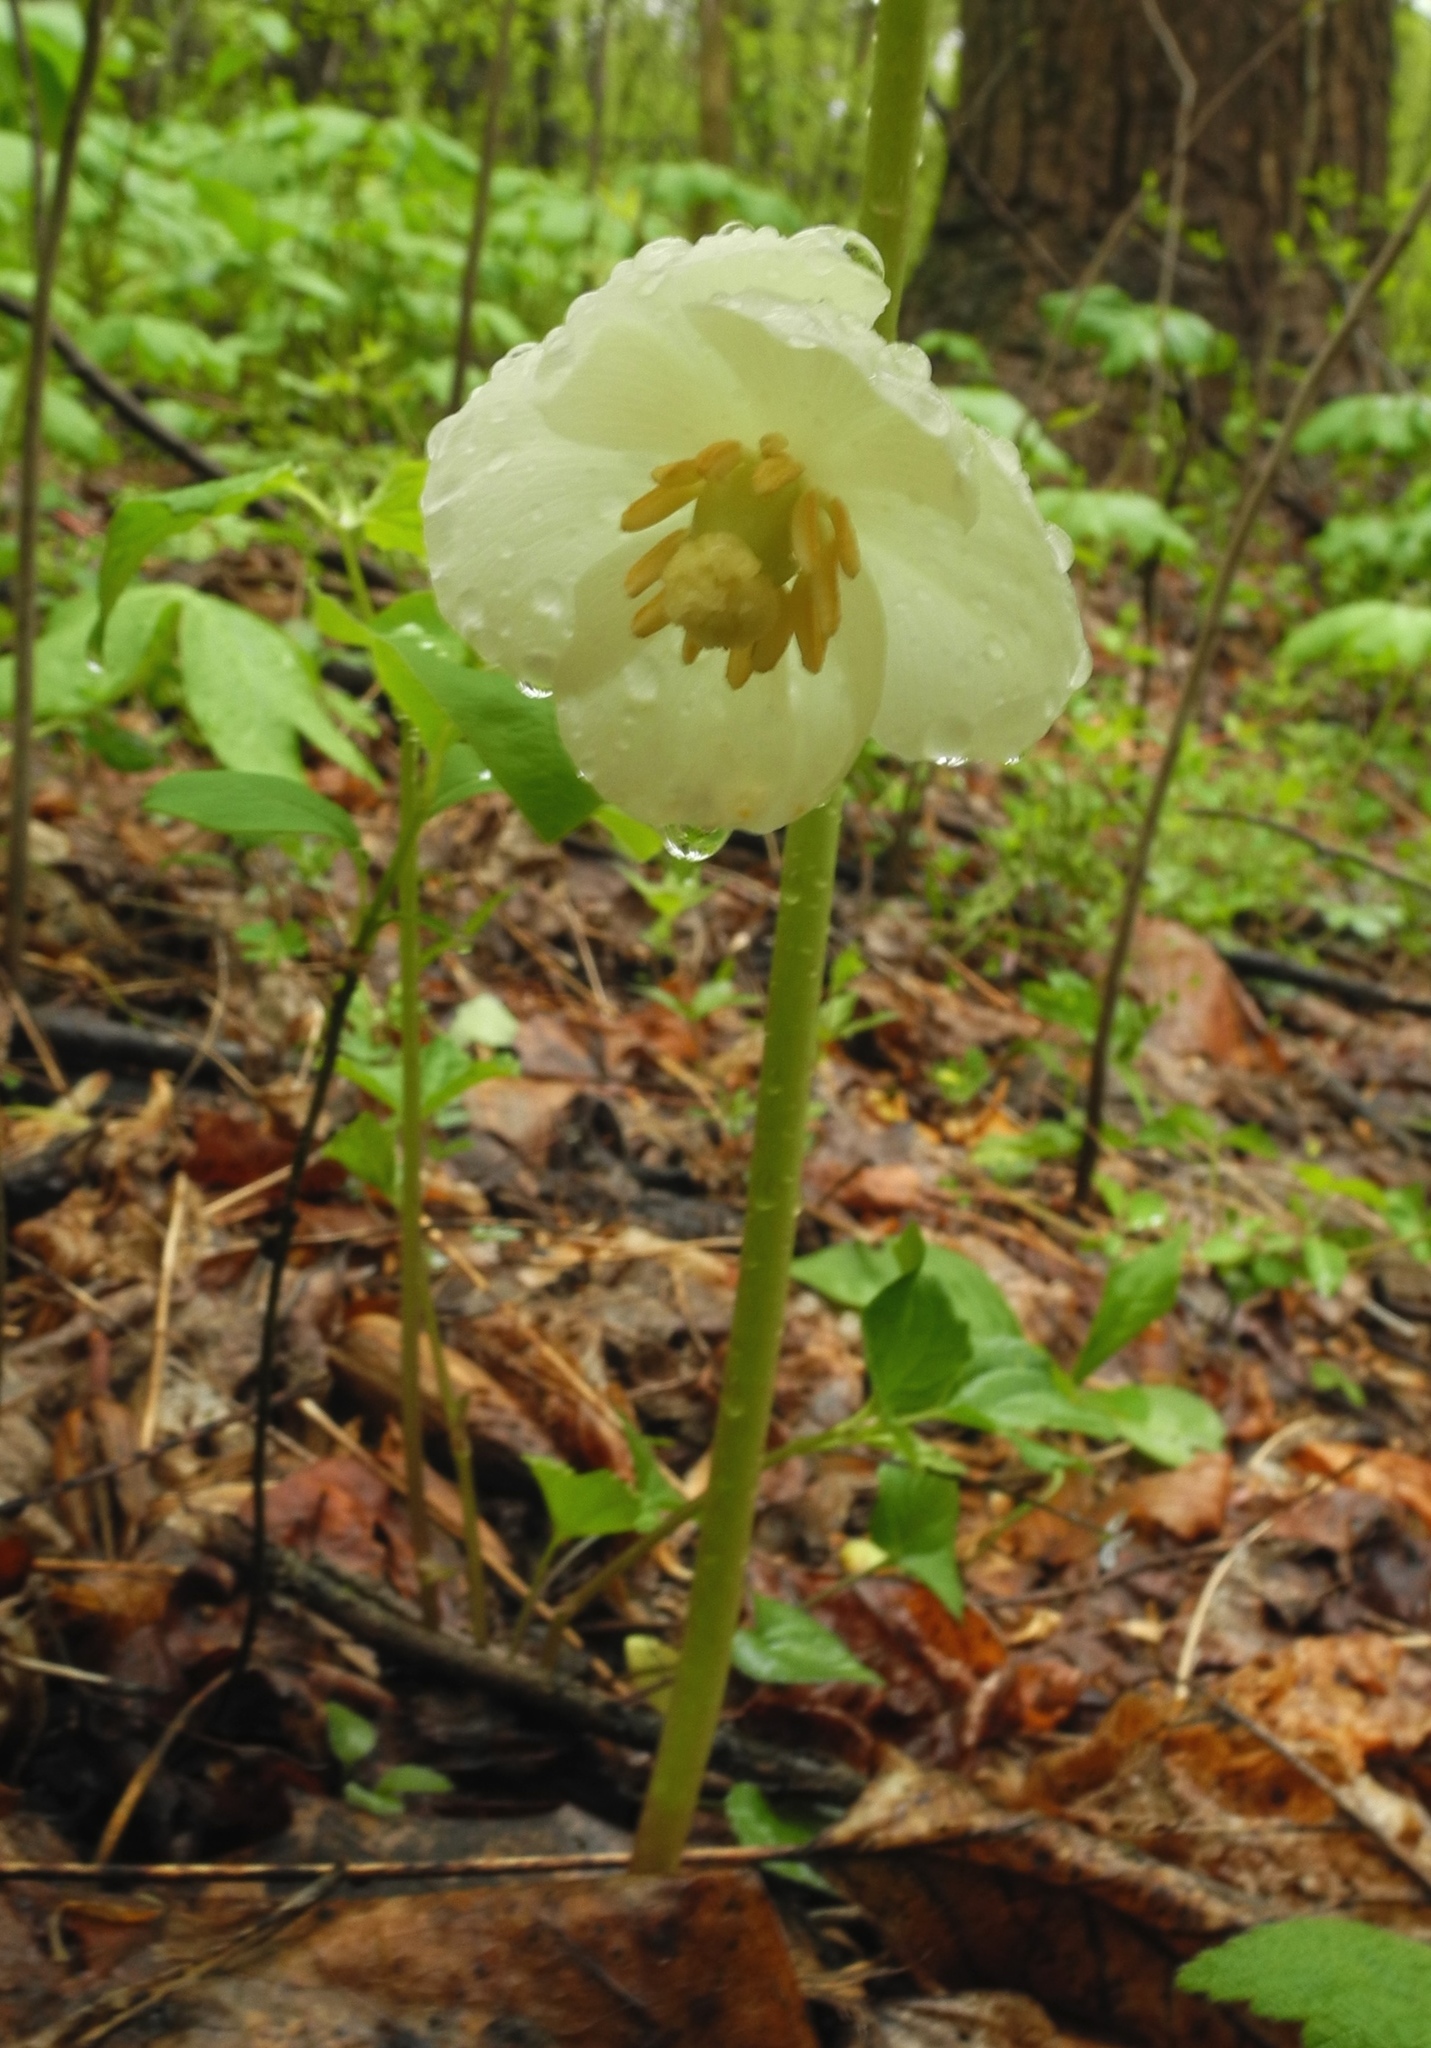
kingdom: Plantae
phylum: Tracheophyta
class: Magnoliopsida
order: Ranunculales
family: Berberidaceae
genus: Podophyllum
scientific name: Podophyllum peltatum
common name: Wild mandrake
